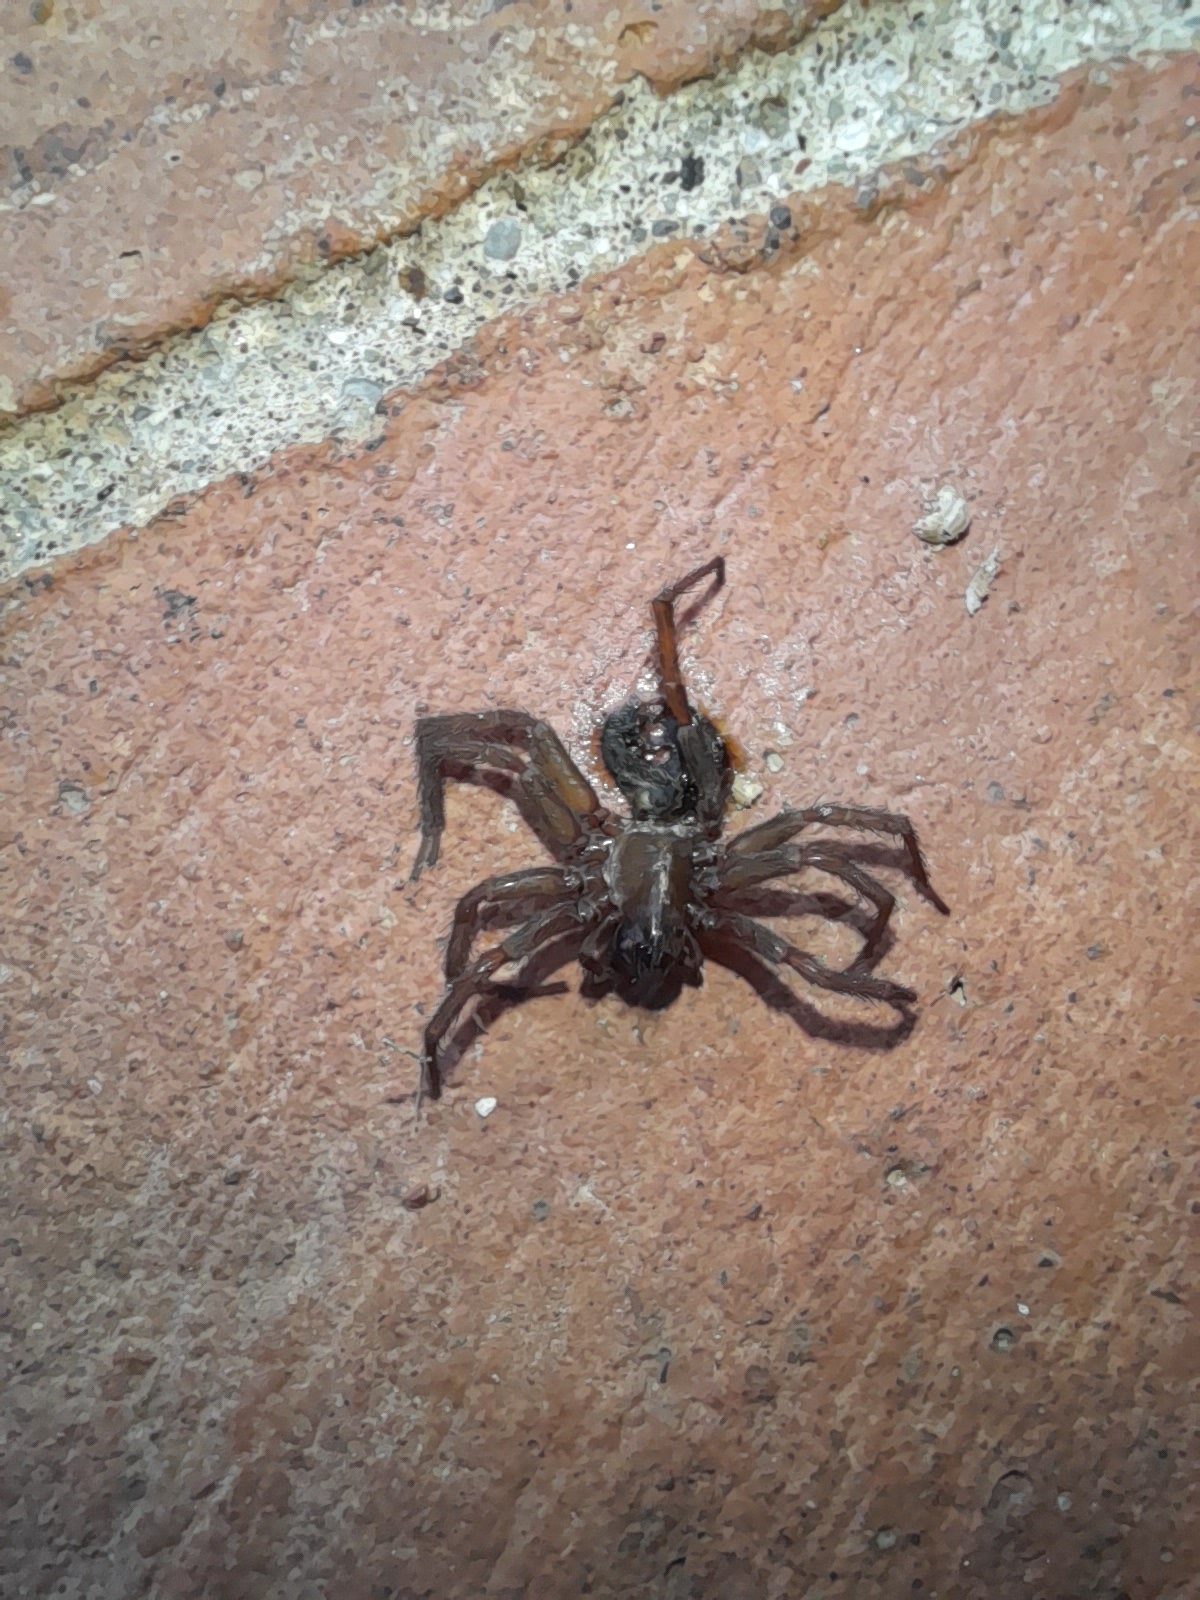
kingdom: Animalia
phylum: Arthropoda
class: Arachnida
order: Araneae
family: Agelenidae
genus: Lycosoides
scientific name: Lycosoides coarctata
